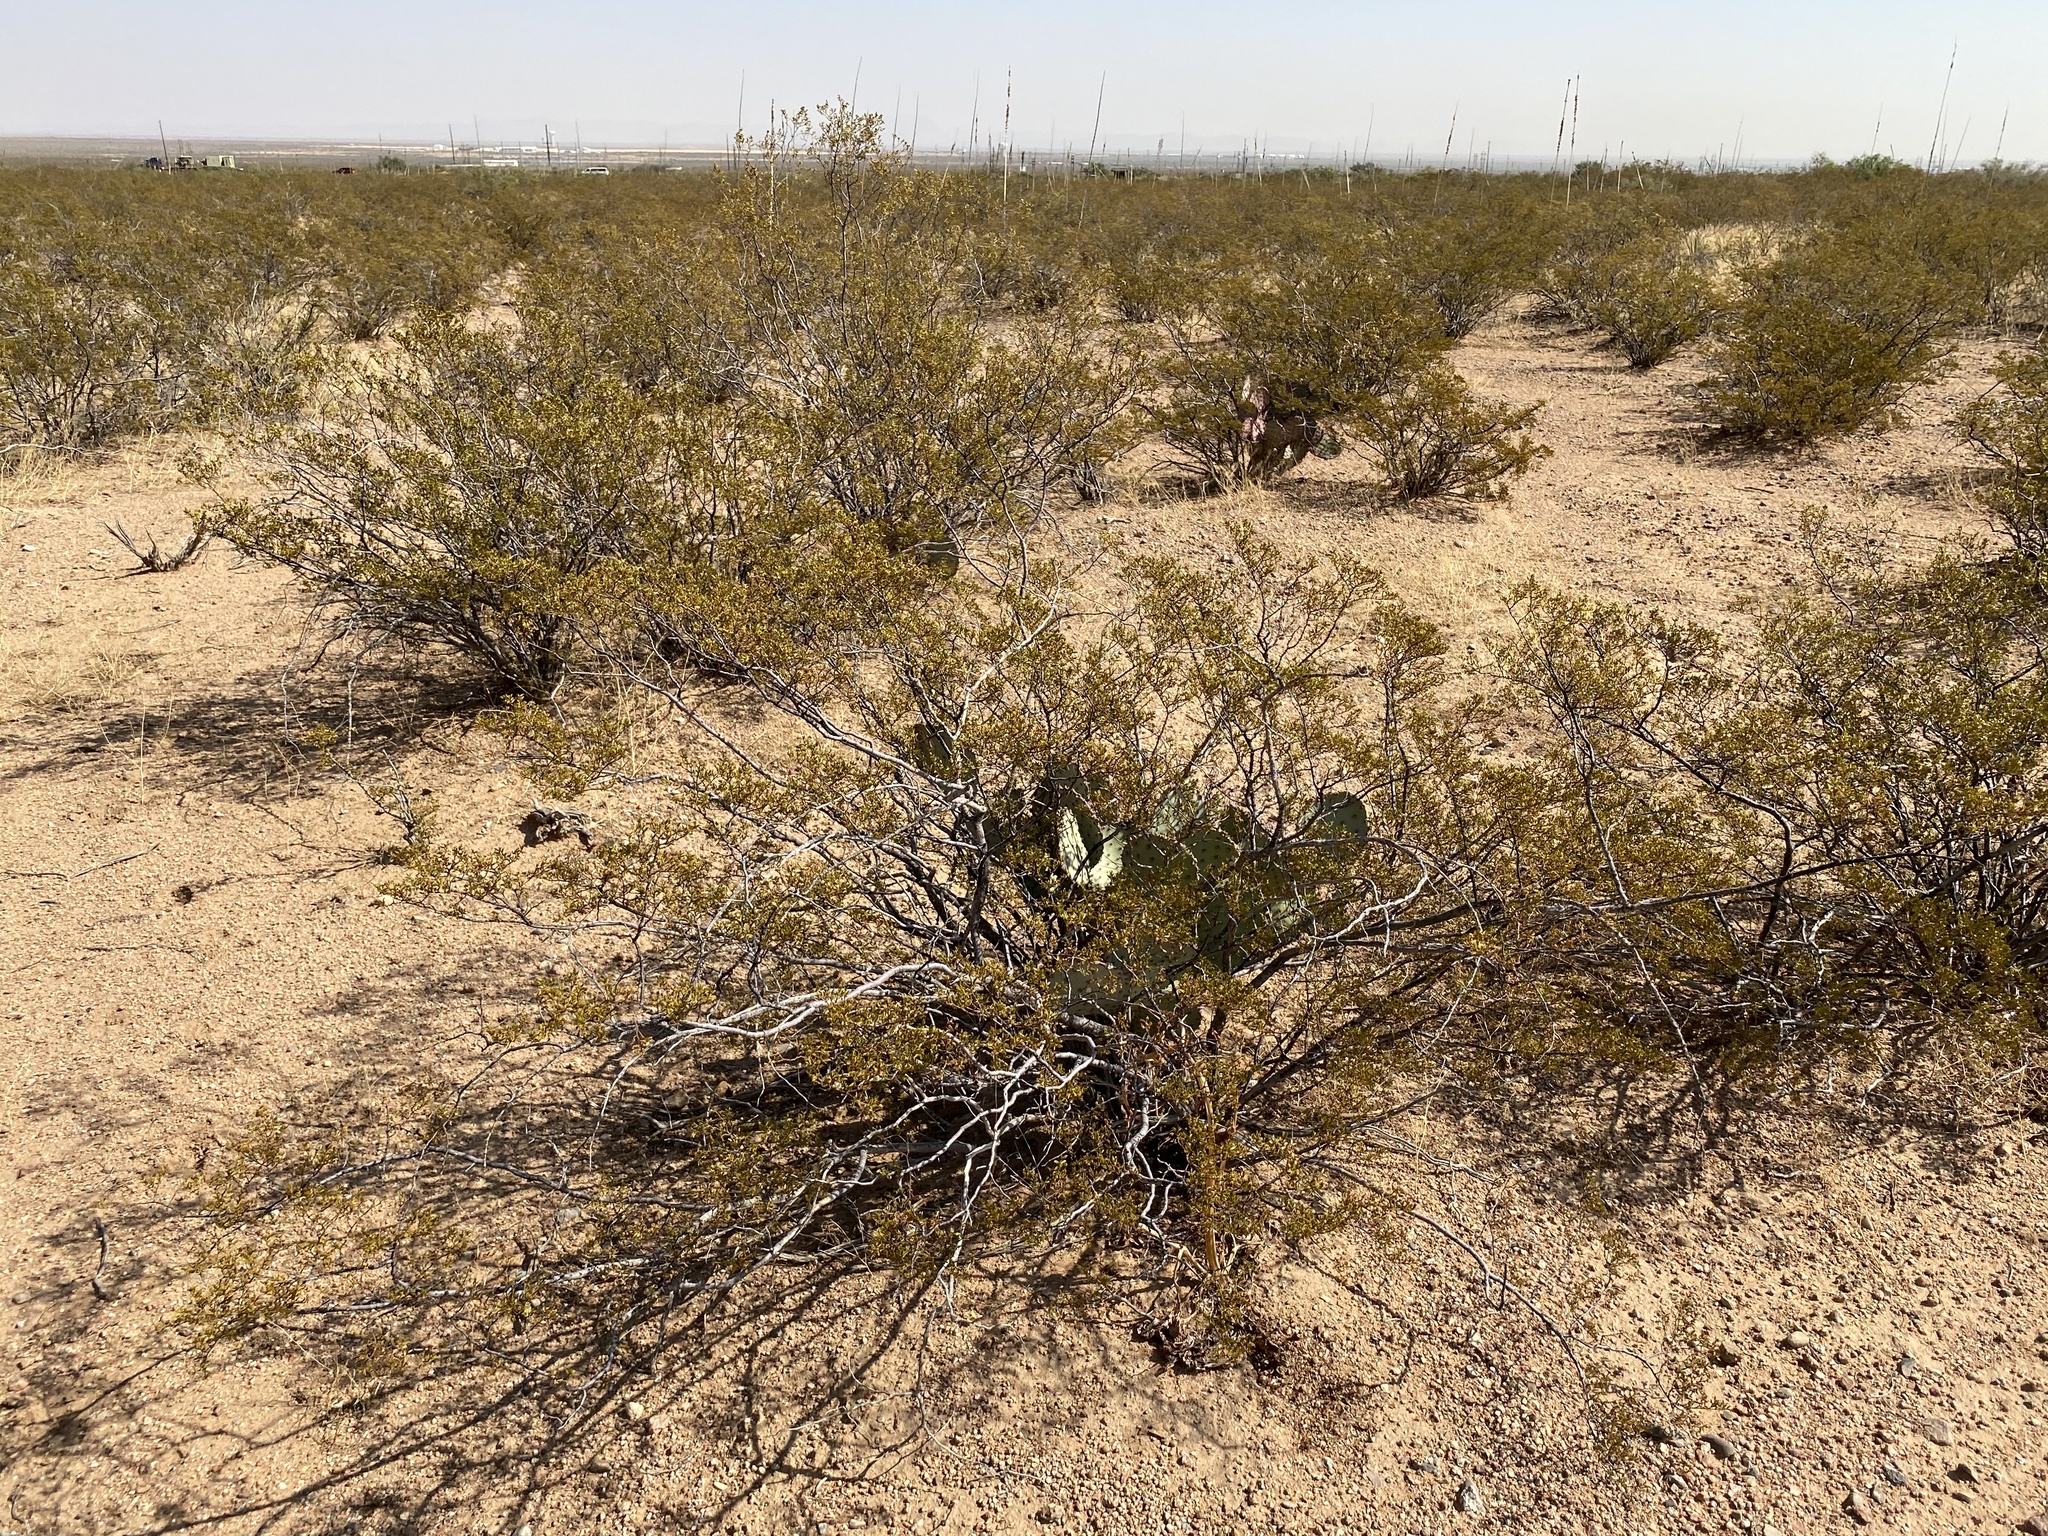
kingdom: Plantae
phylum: Tracheophyta
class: Magnoliopsida
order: Zygophyllales
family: Zygophyllaceae
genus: Larrea
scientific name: Larrea tridentata
